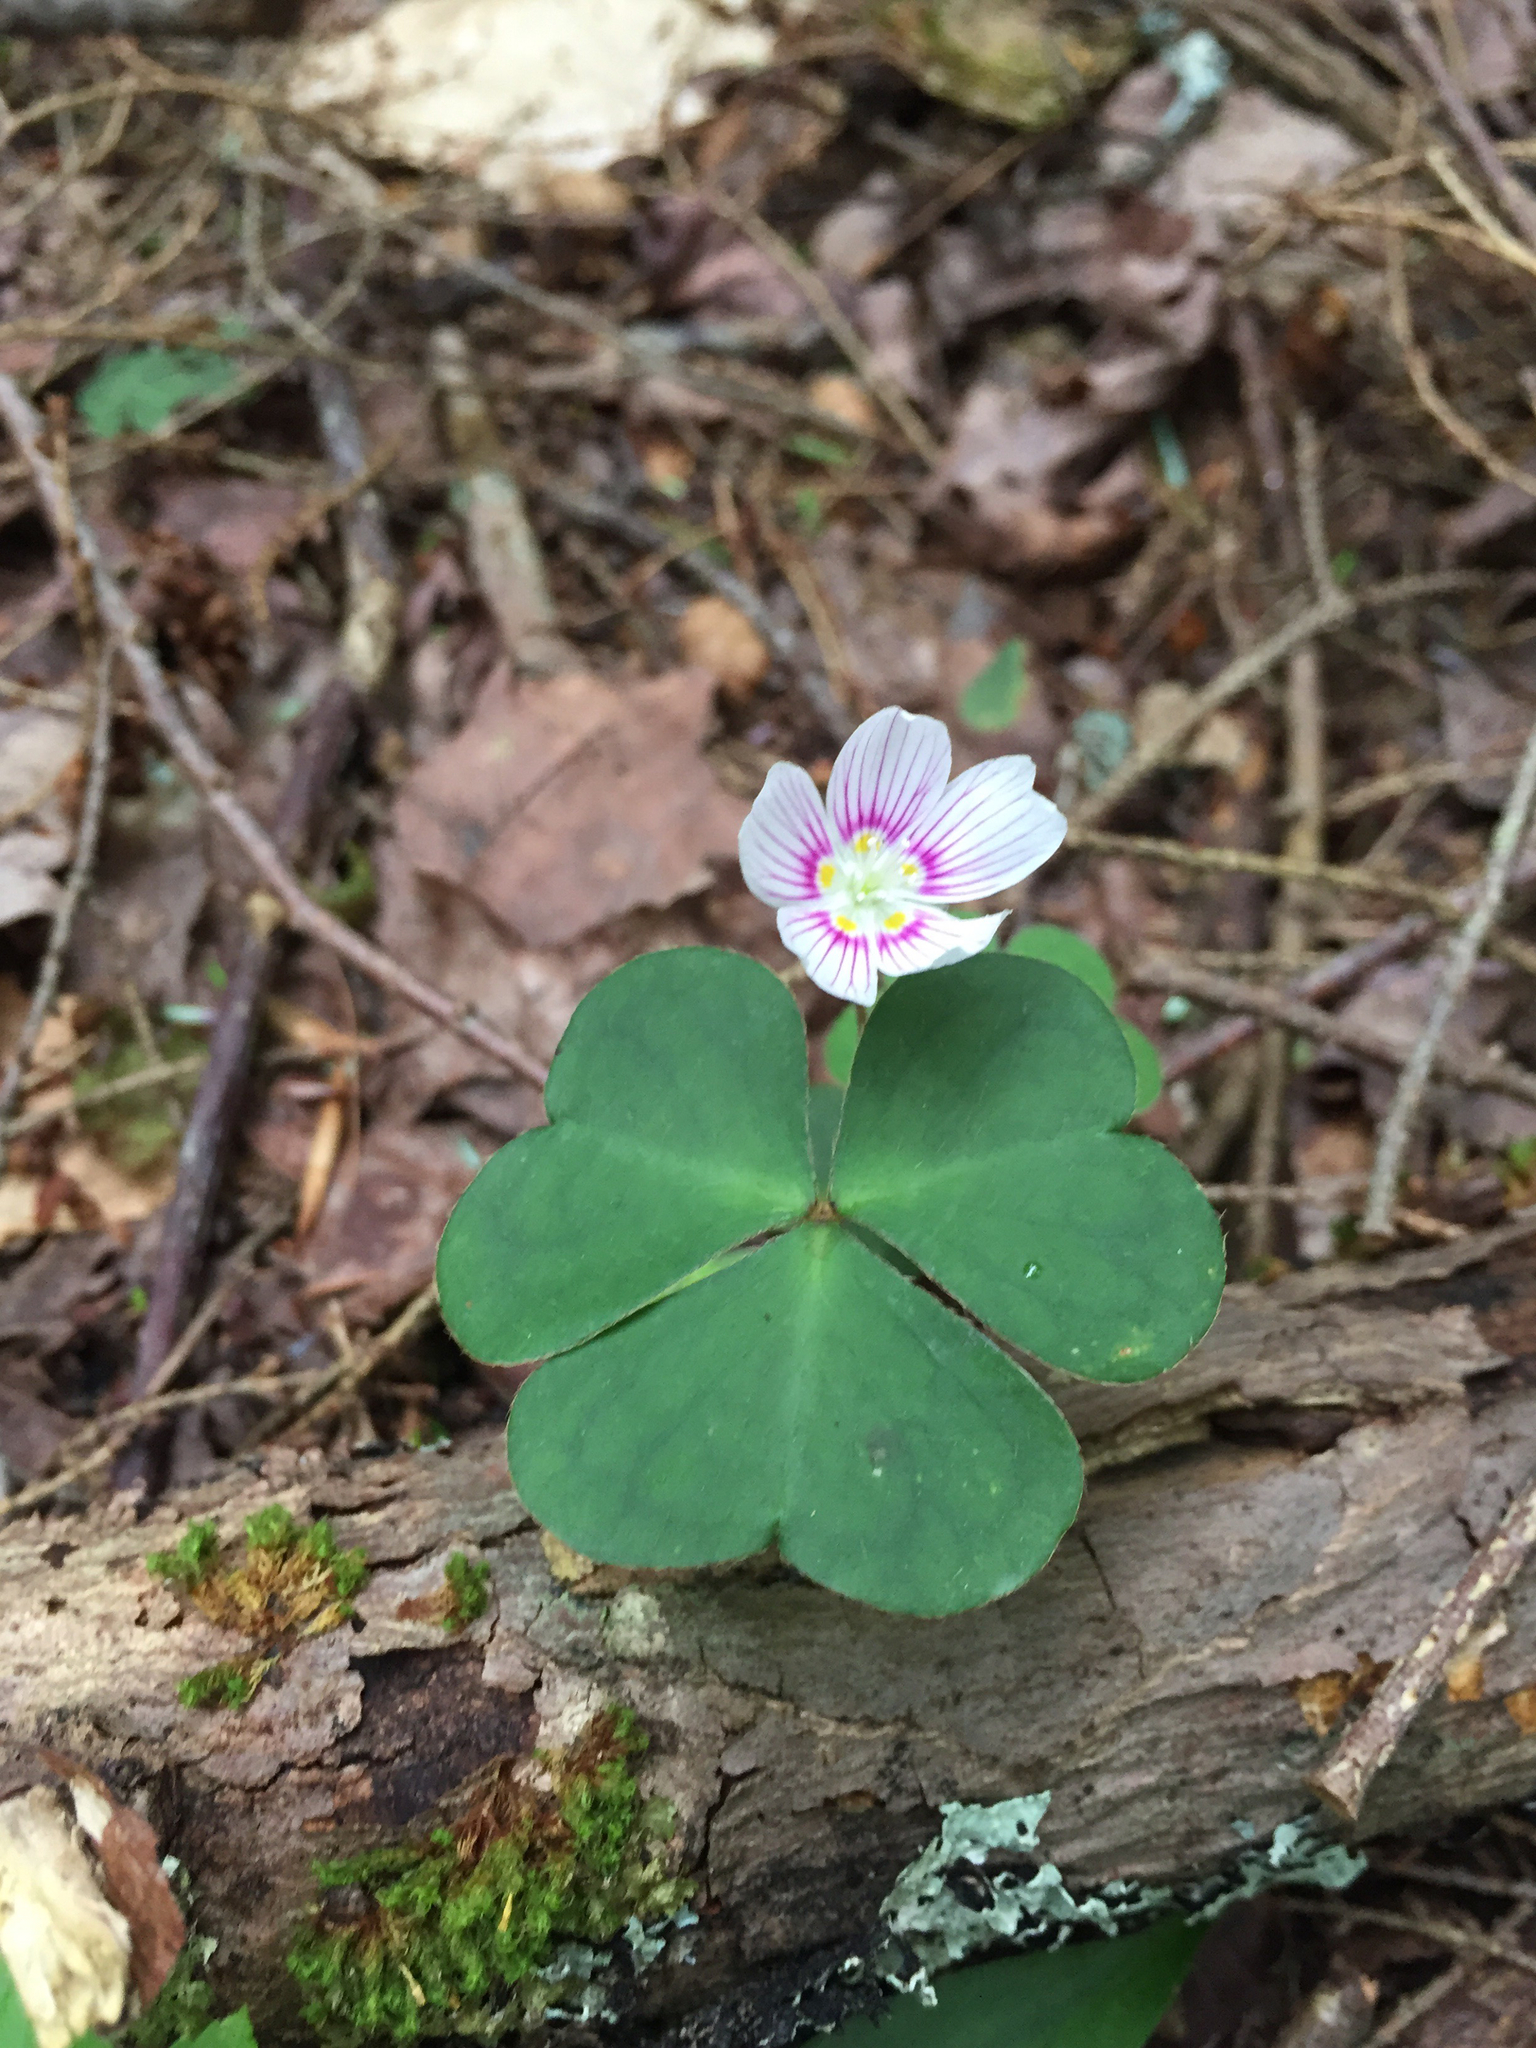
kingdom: Plantae
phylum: Tracheophyta
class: Magnoliopsida
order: Oxalidales
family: Oxalidaceae
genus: Oxalis
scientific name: Oxalis montana
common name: American wood-sorrel
